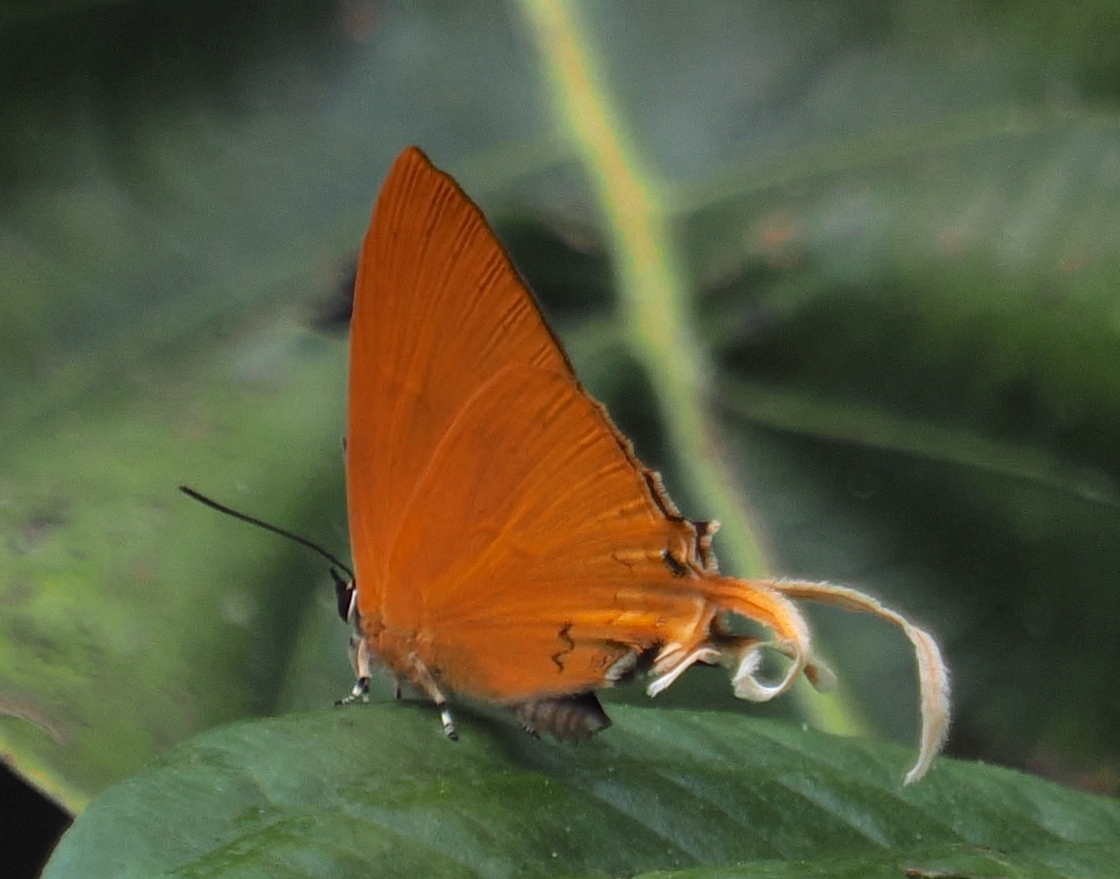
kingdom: Animalia
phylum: Arthropoda
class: Insecta
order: Lepidoptera
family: Lycaenidae
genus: Ticherra
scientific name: Ticherra acte
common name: Blue imperial
